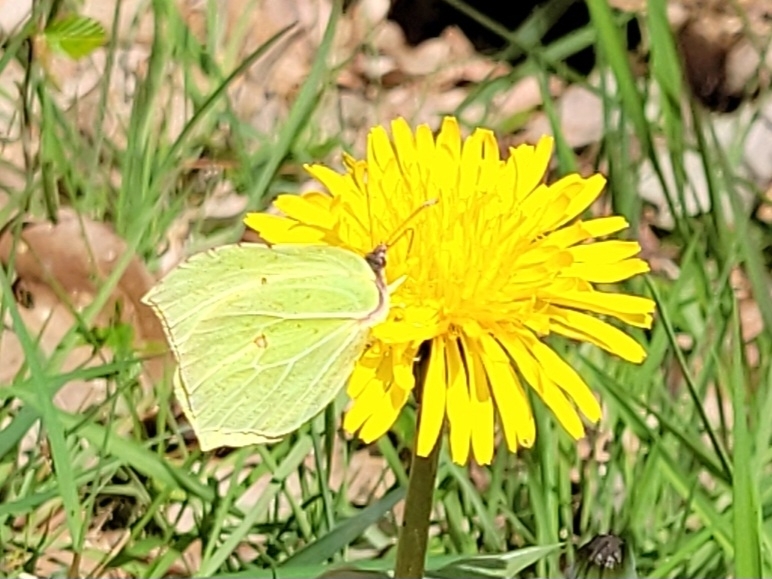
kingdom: Animalia
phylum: Arthropoda
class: Insecta
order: Lepidoptera
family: Pieridae
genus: Gonepteryx
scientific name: Gonepteryx rhamni
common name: Brimstone
